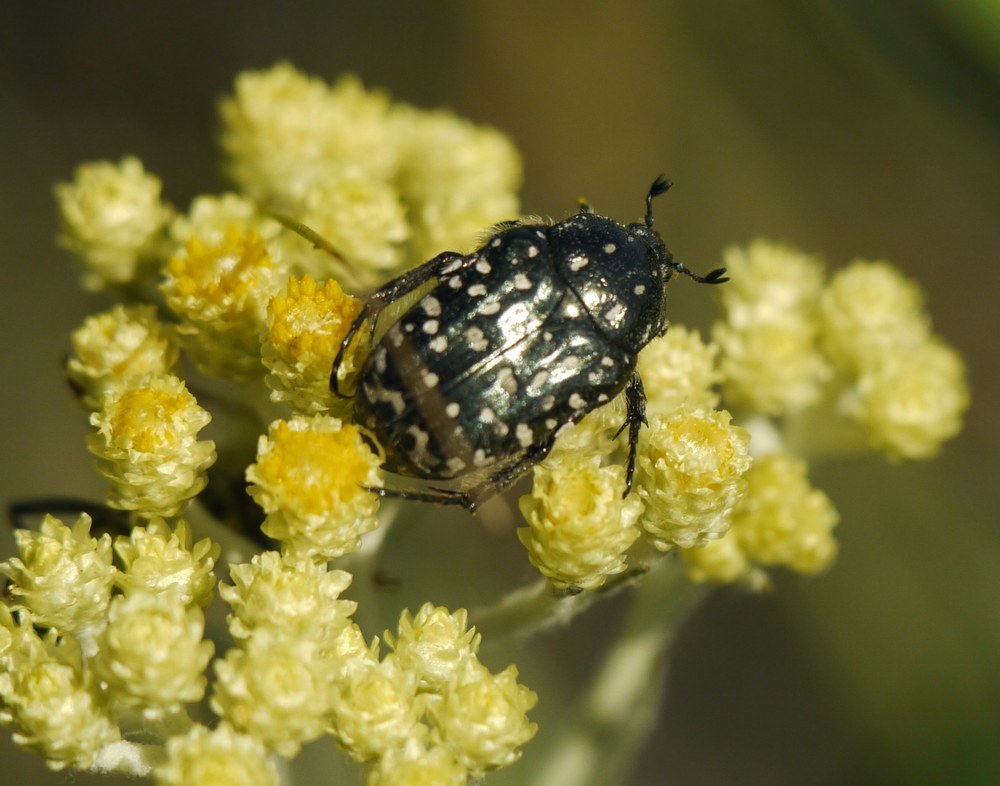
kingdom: Animalia
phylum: Arthropoda
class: Insecta
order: Coleoptera
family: Scarabaeidae
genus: Oxythyrea
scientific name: Oxythyrea funesta
